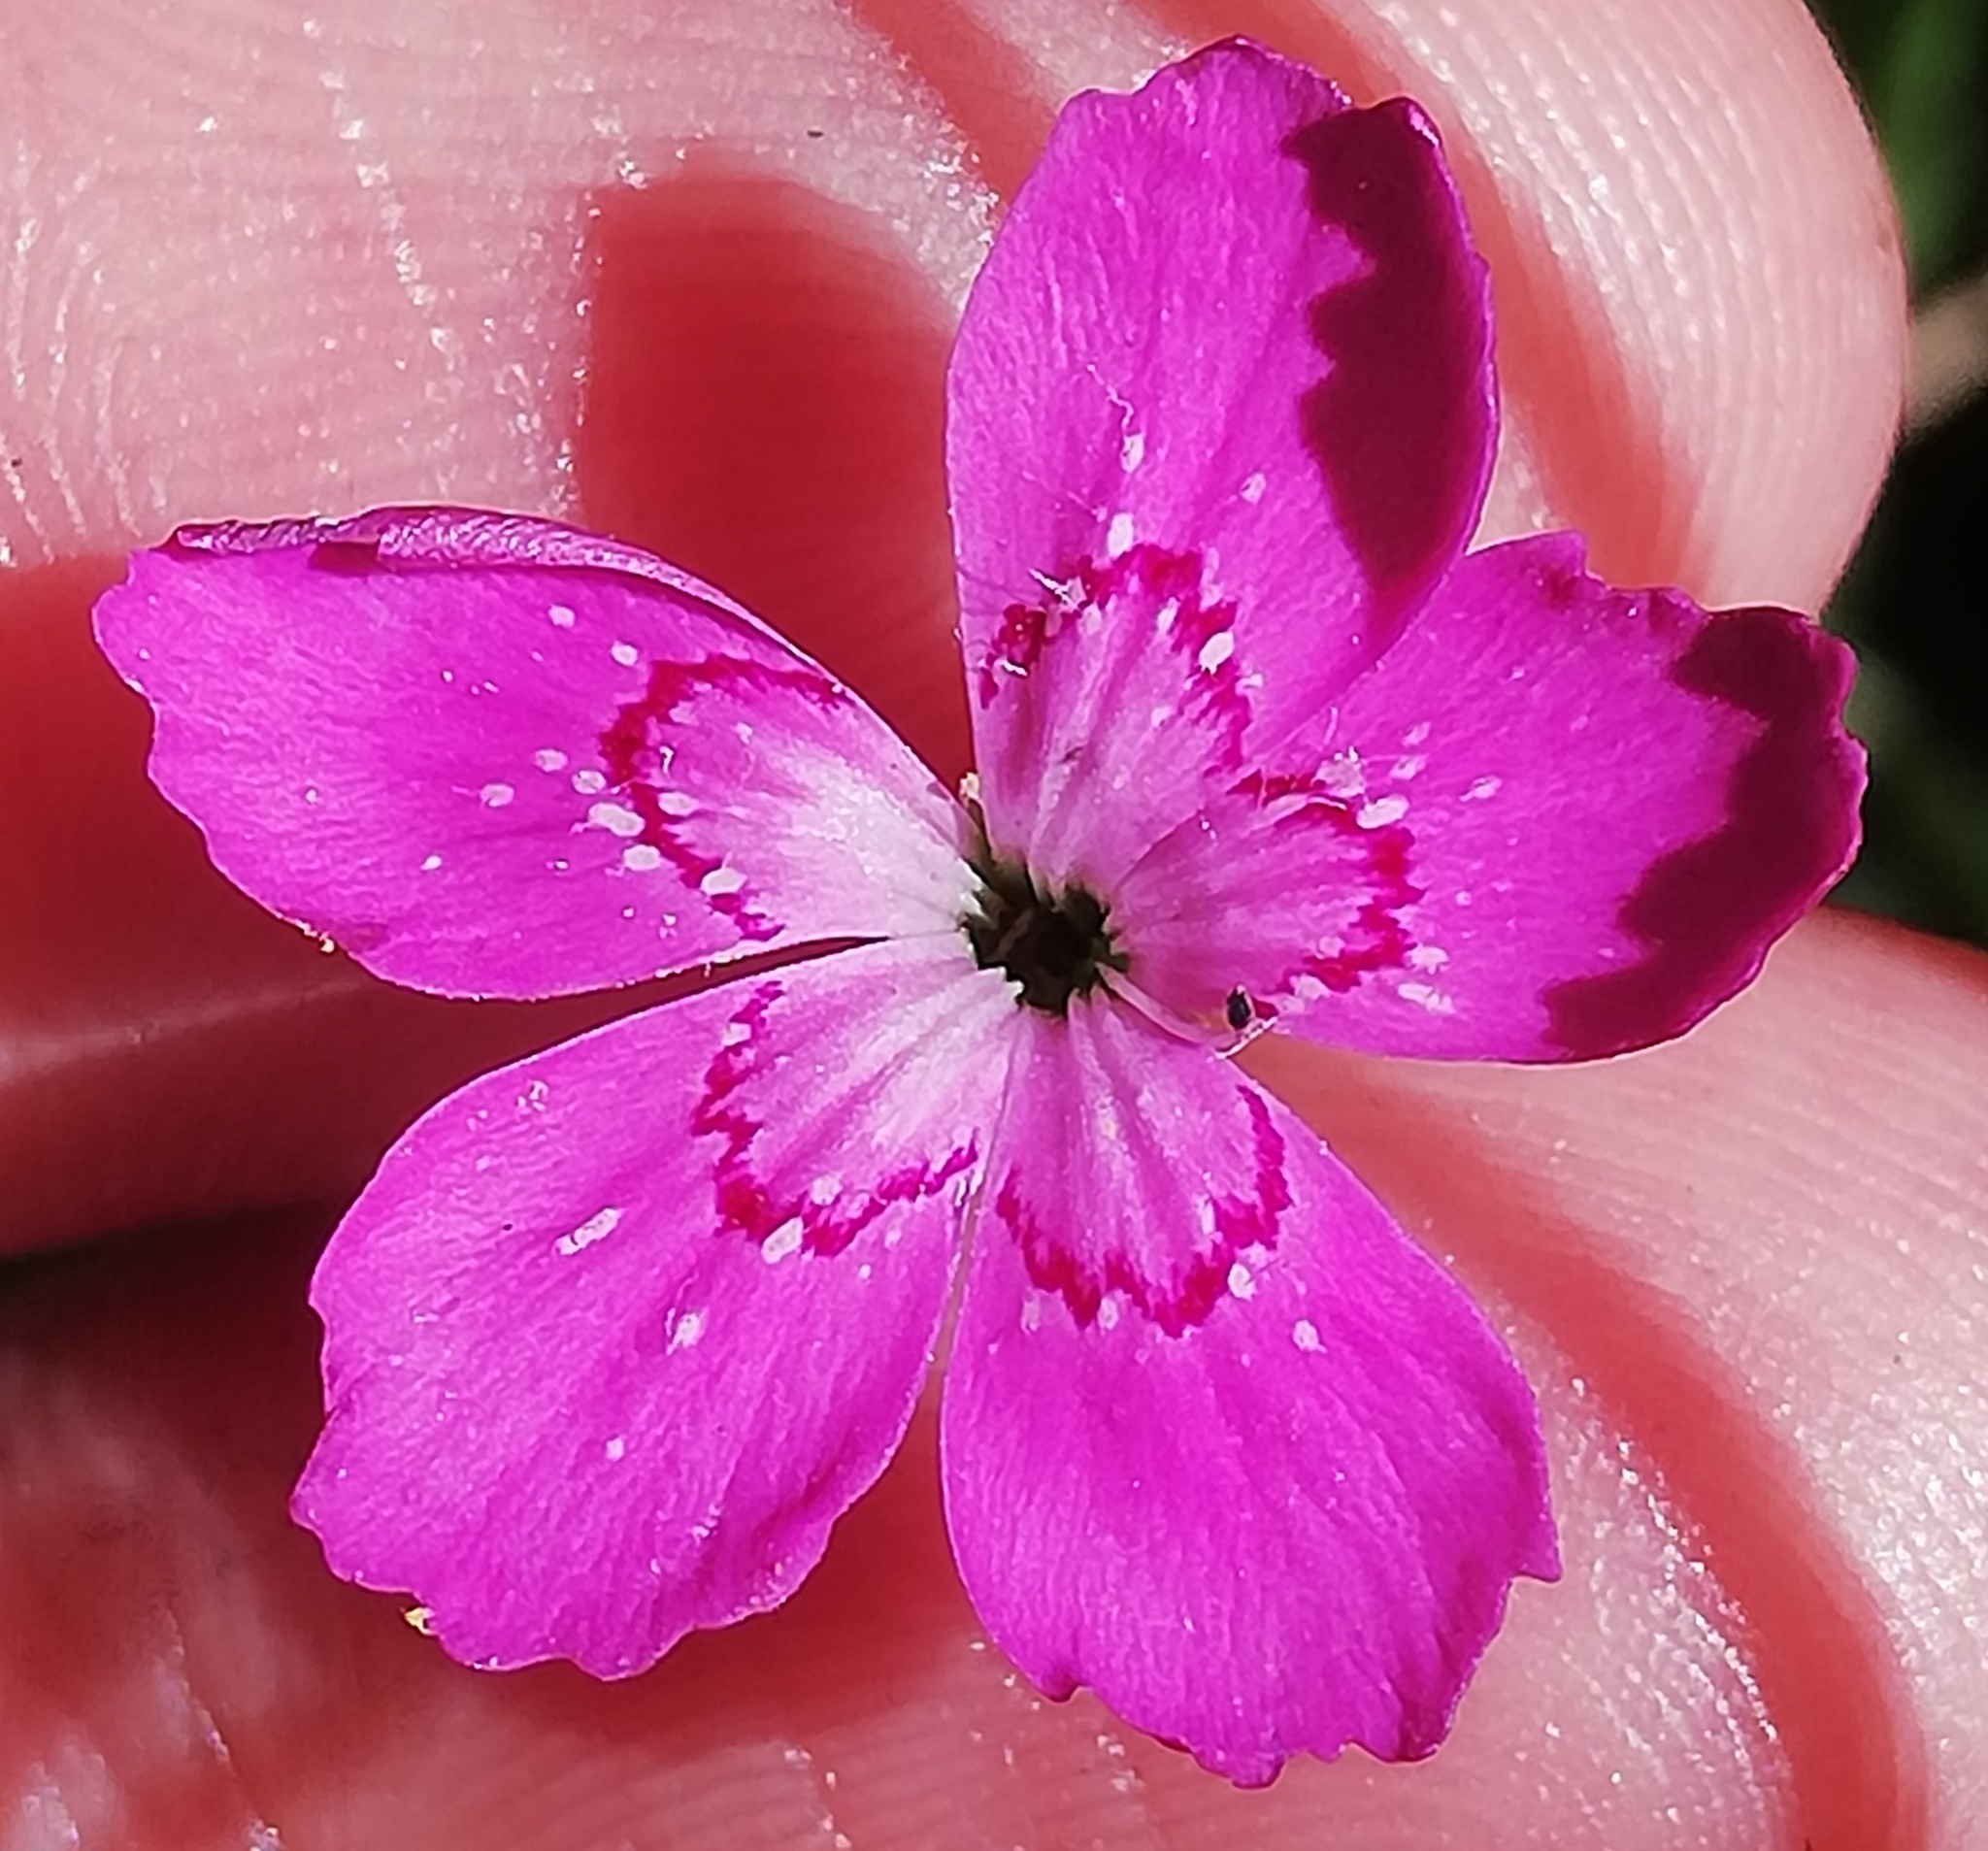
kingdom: Plantae
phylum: Tracheophyta
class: Magnoliopsida
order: Caryophyllales
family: Caryophyllaceae
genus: Dianthus
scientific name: Dianthus deltoides
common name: Maiden pink
